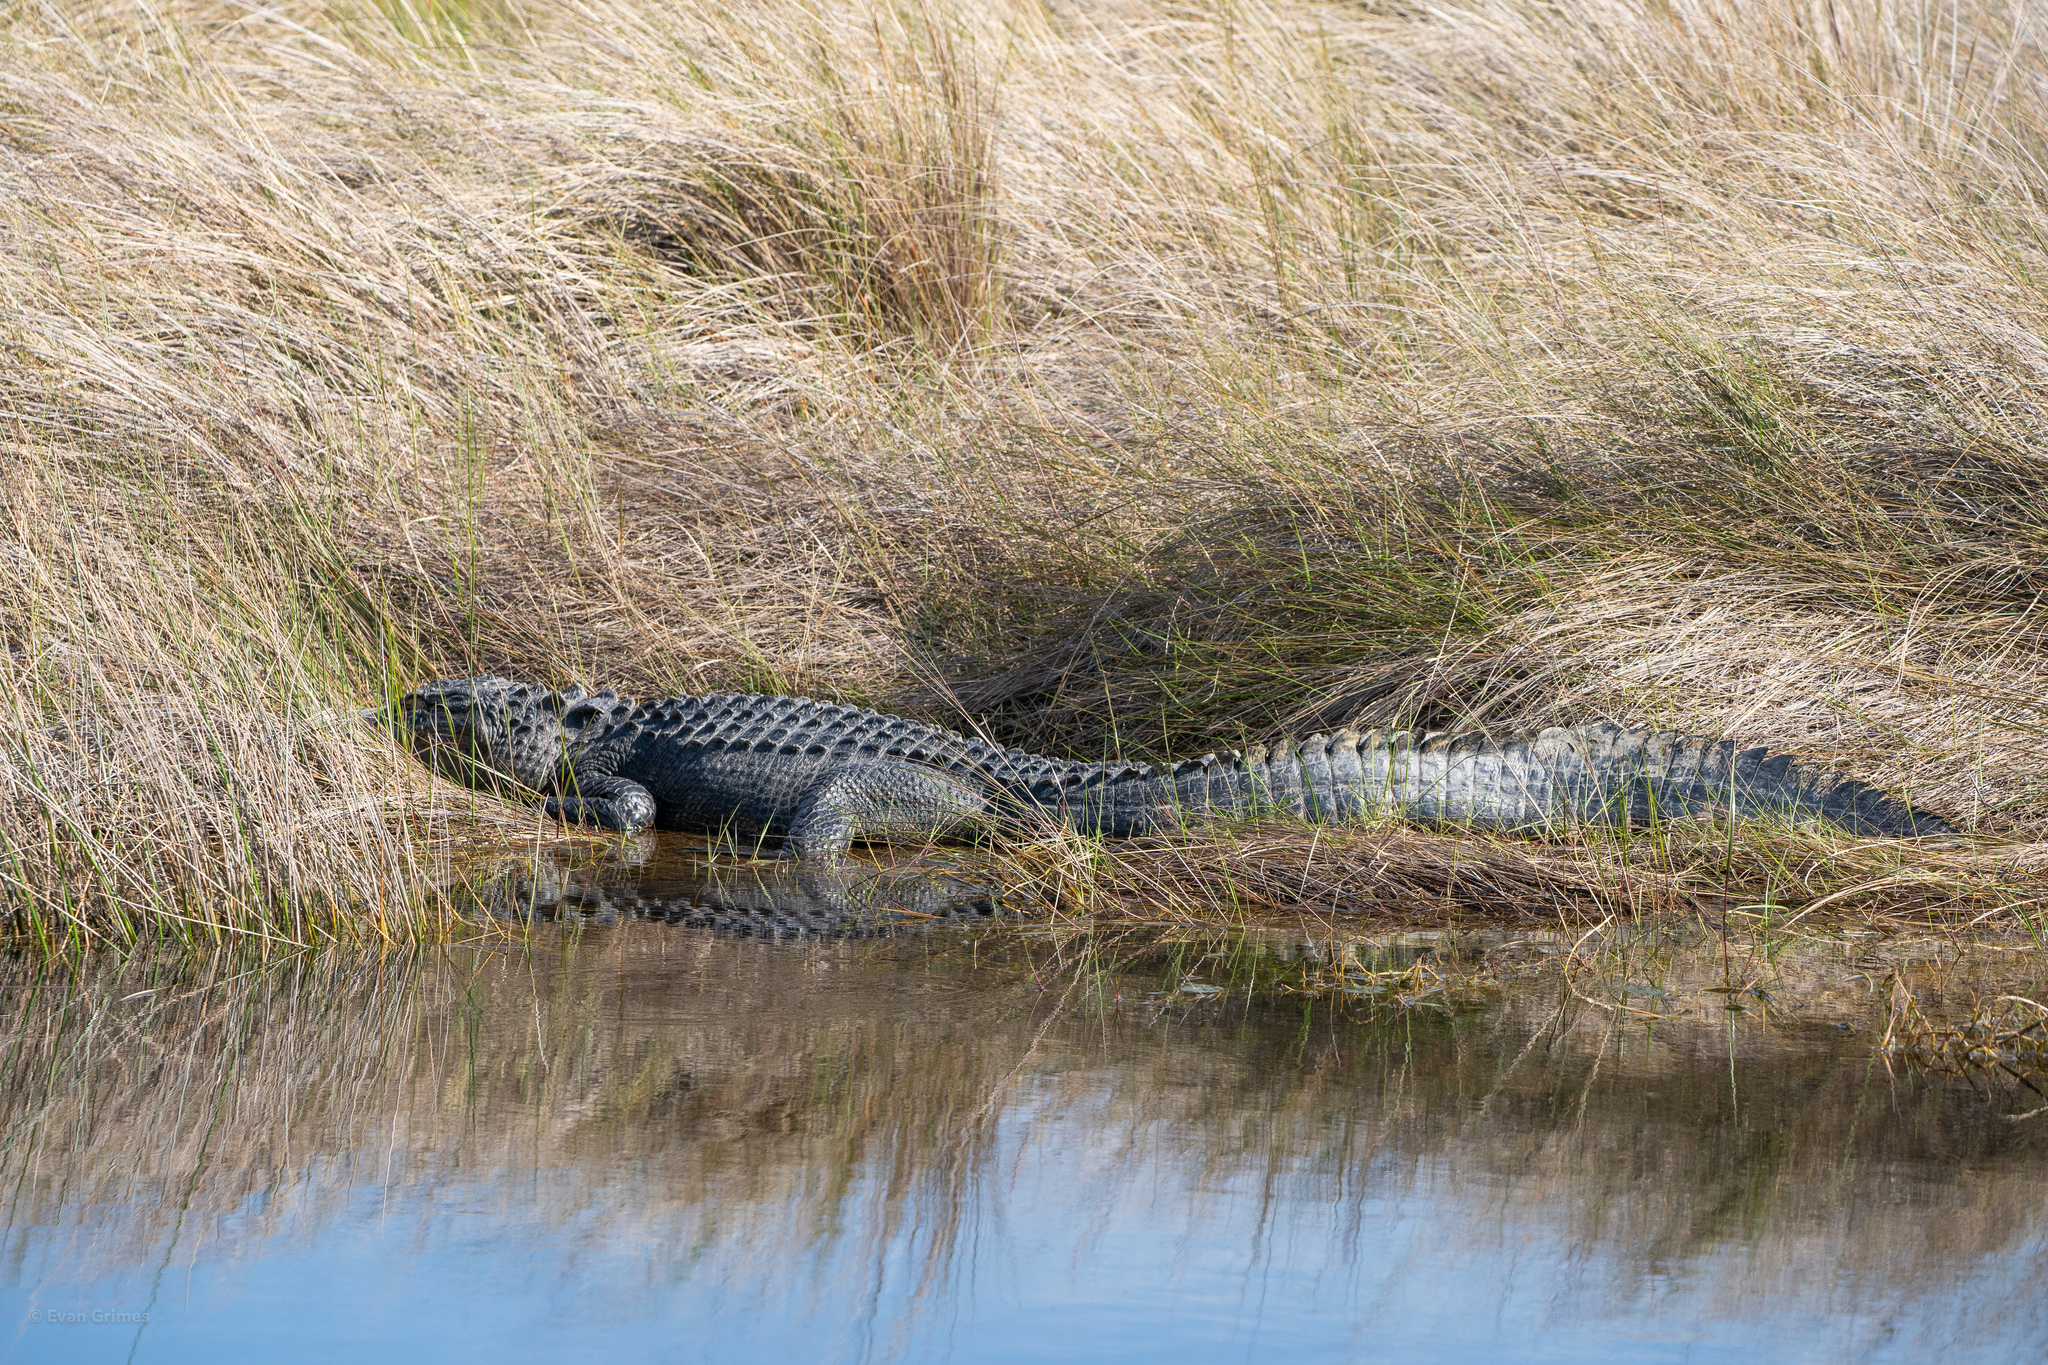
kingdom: Animalia
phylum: Chordata
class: Crocodylia
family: Alligatoridae
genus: Alligator
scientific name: Alligator mississippiensis
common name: American alligator
